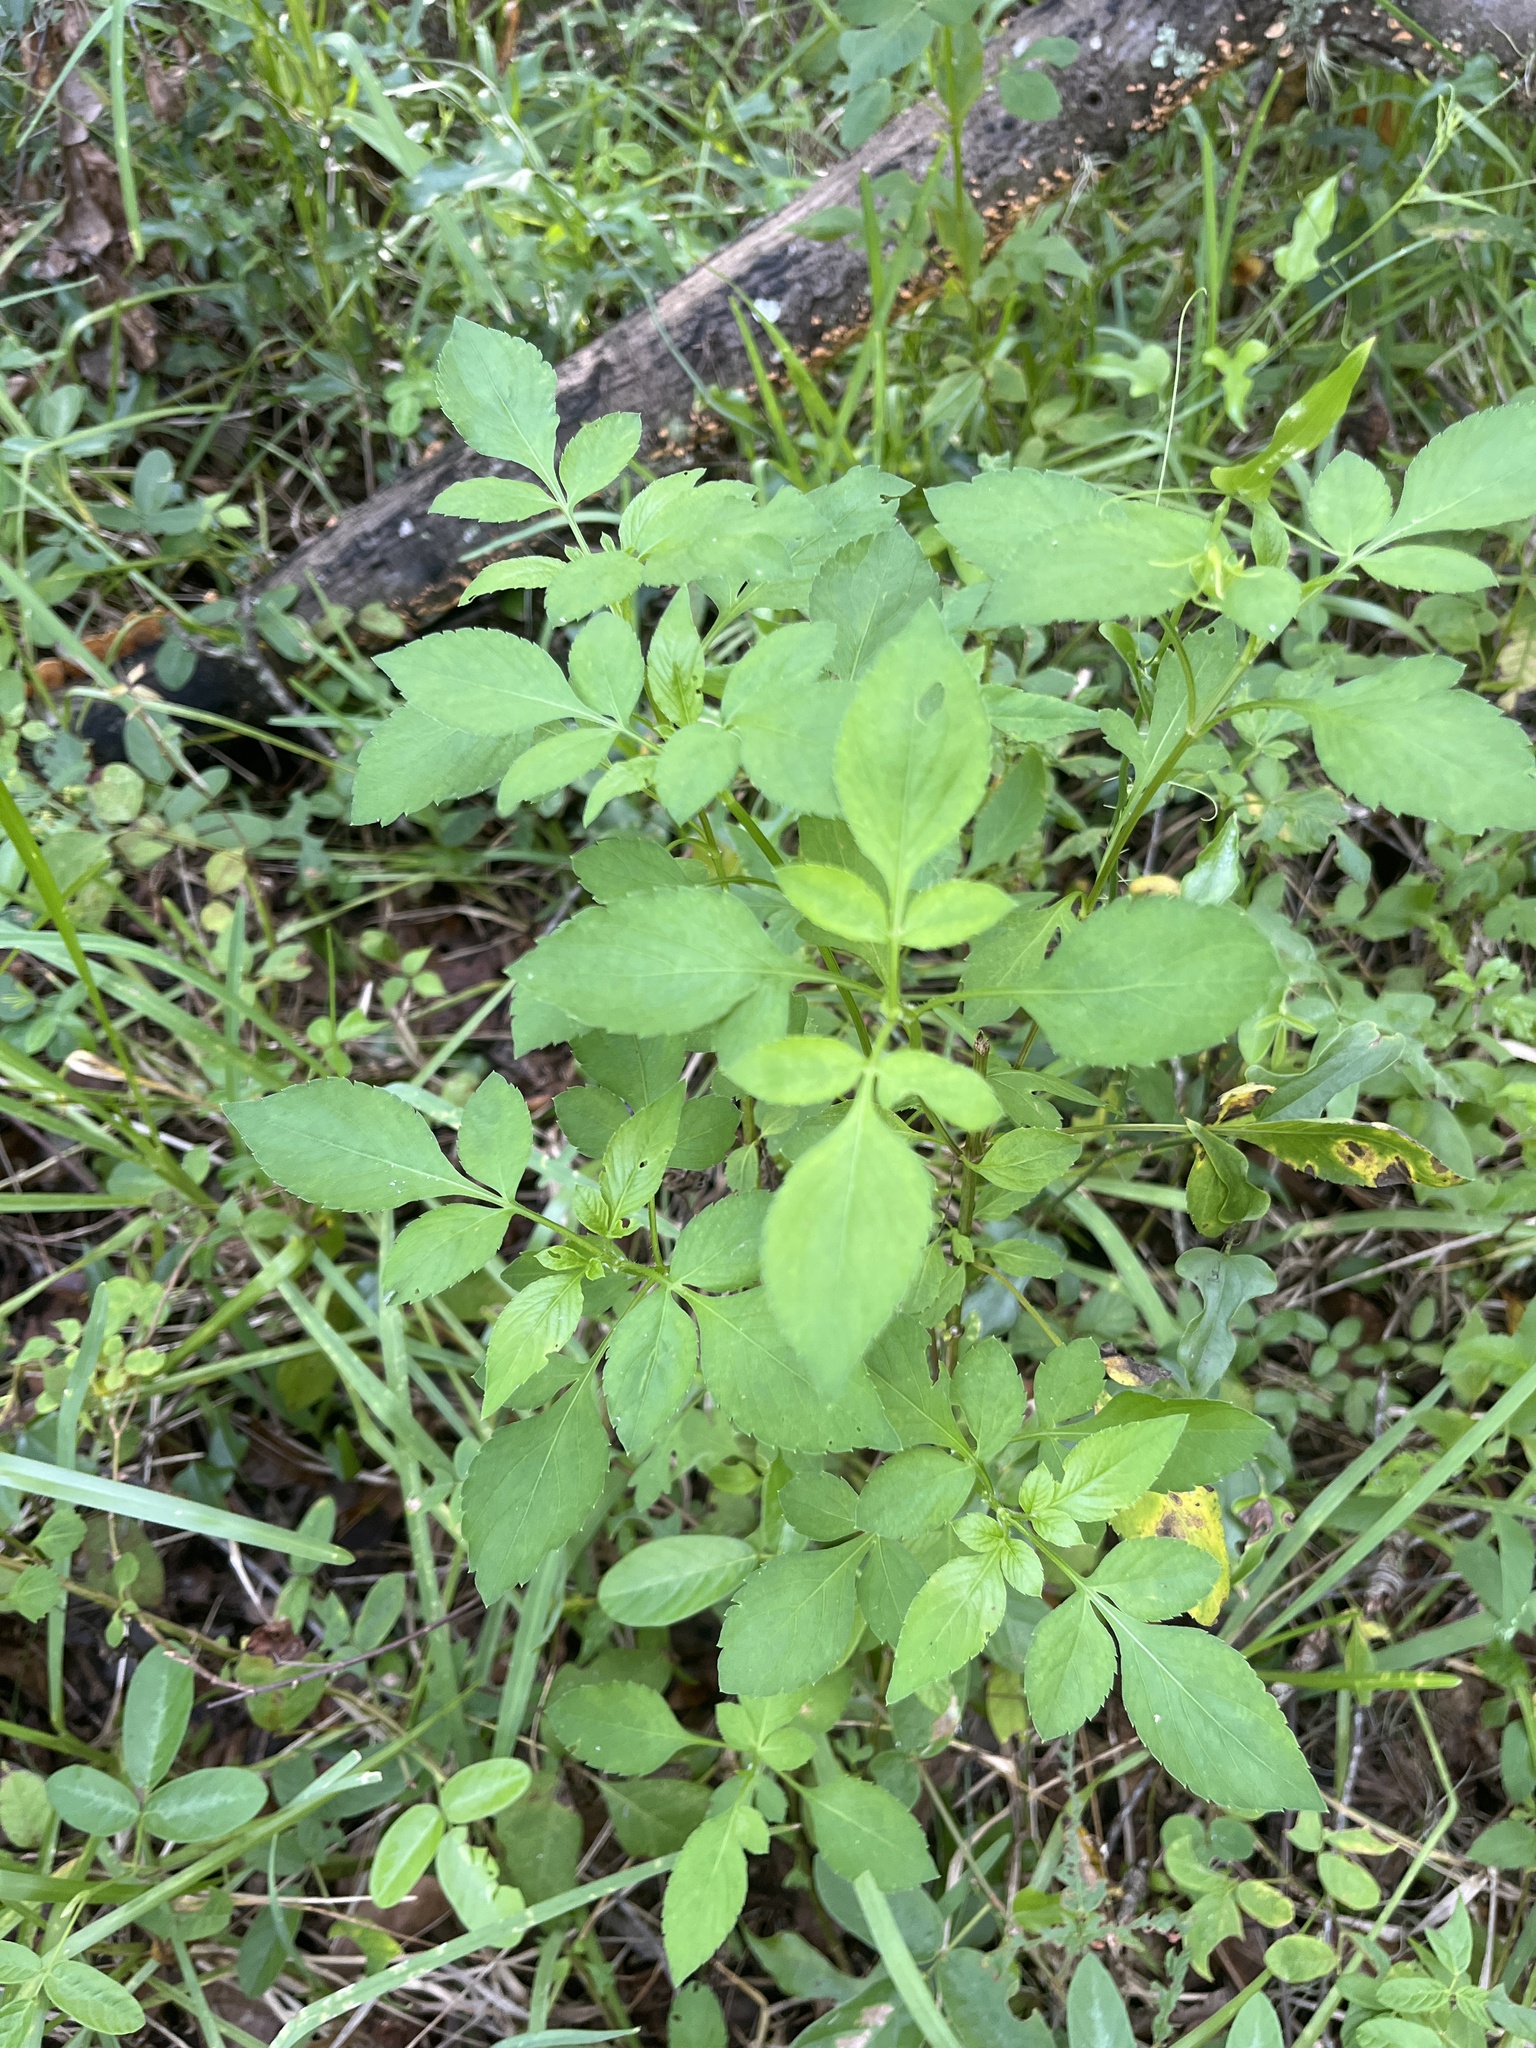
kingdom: Plantae
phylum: Tracheophyta
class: Magnoliopsida
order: Asterales
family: Asteraceae
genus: Bidens
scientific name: Bidens alba
